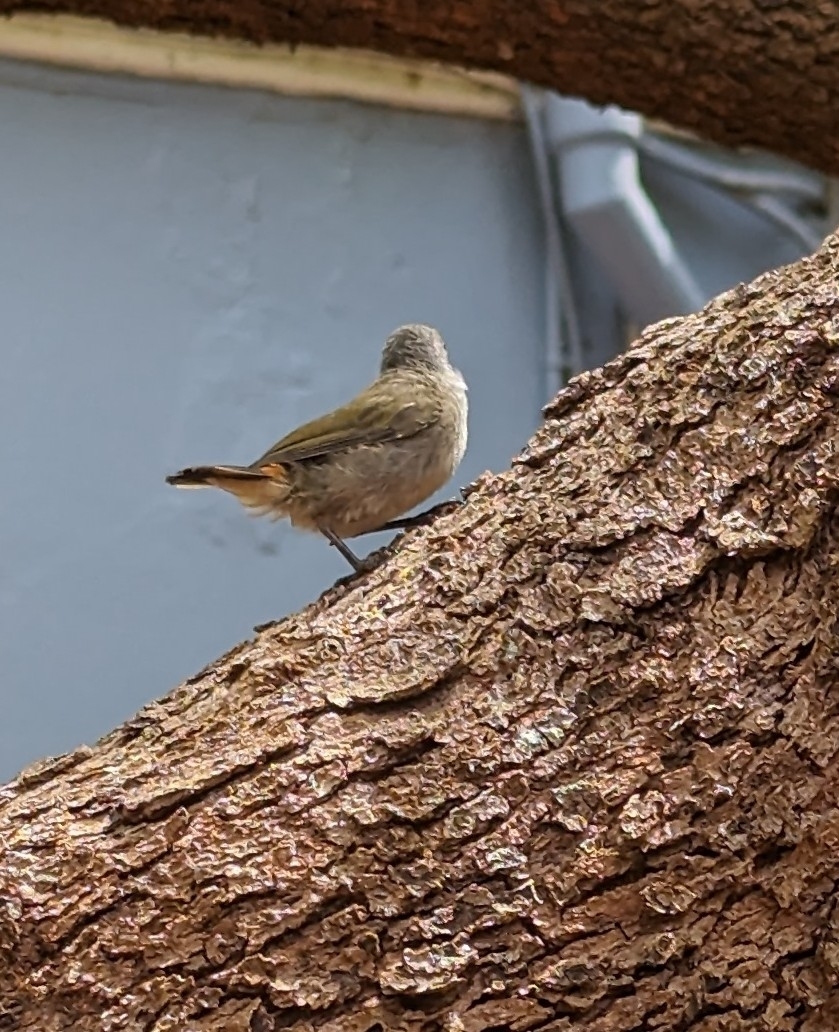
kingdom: Animalia
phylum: Chordata
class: Aves
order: Passeriformes
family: Muscicapidae
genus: Oenanthe
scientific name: Oenanthe familiaris
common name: Familiar chat
